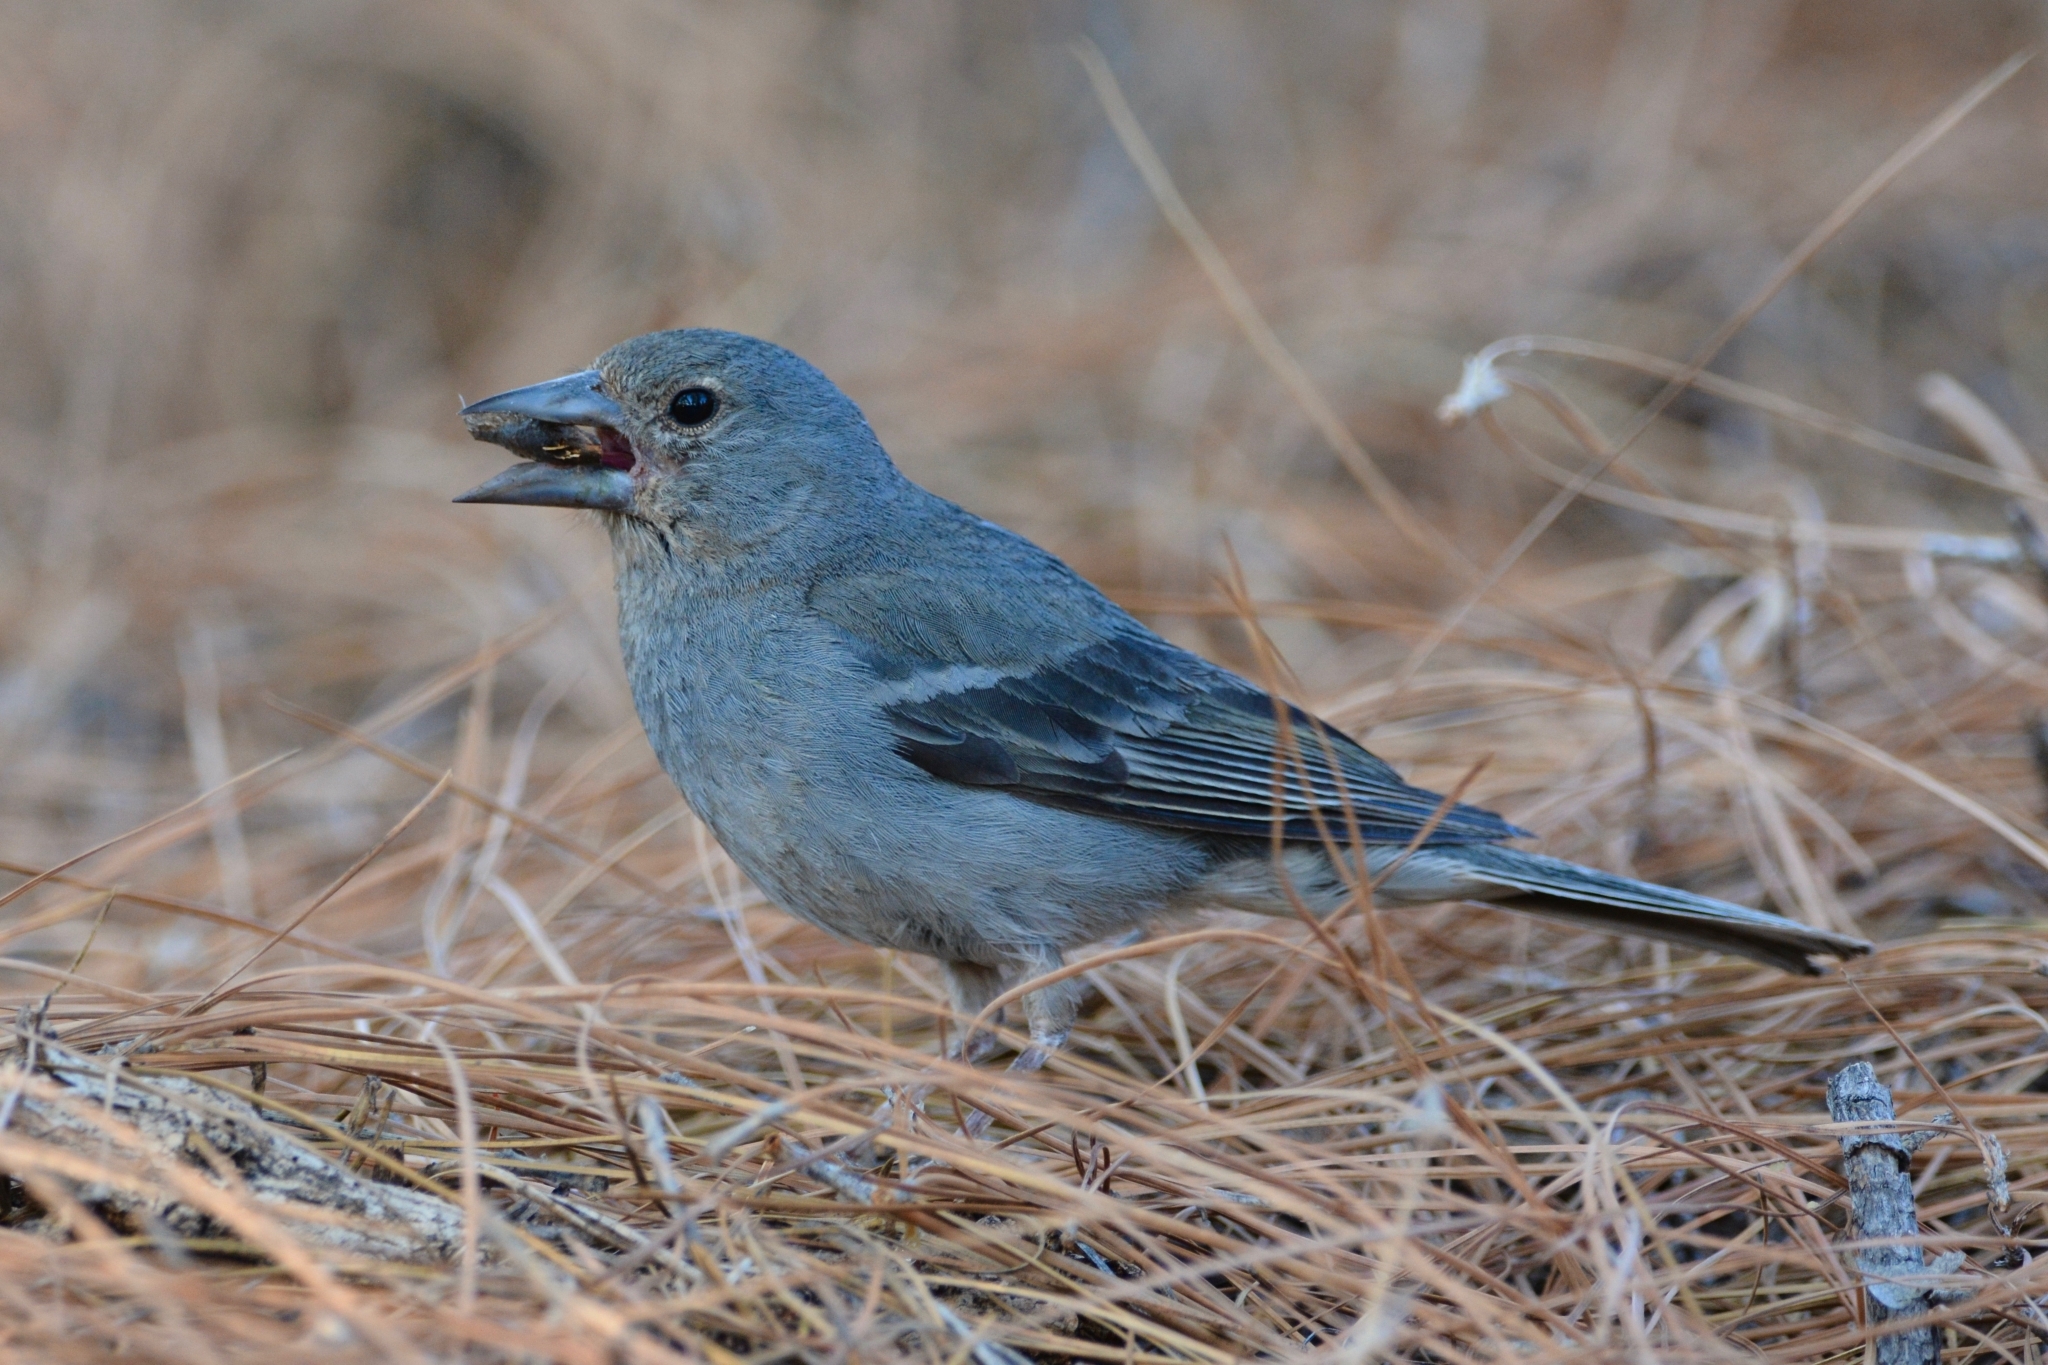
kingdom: Animalia
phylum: Chordata
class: Aves
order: Passeriformes
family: Fringillidae
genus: Fringilla
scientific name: Fringilla teydea
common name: Blue chaffinch
